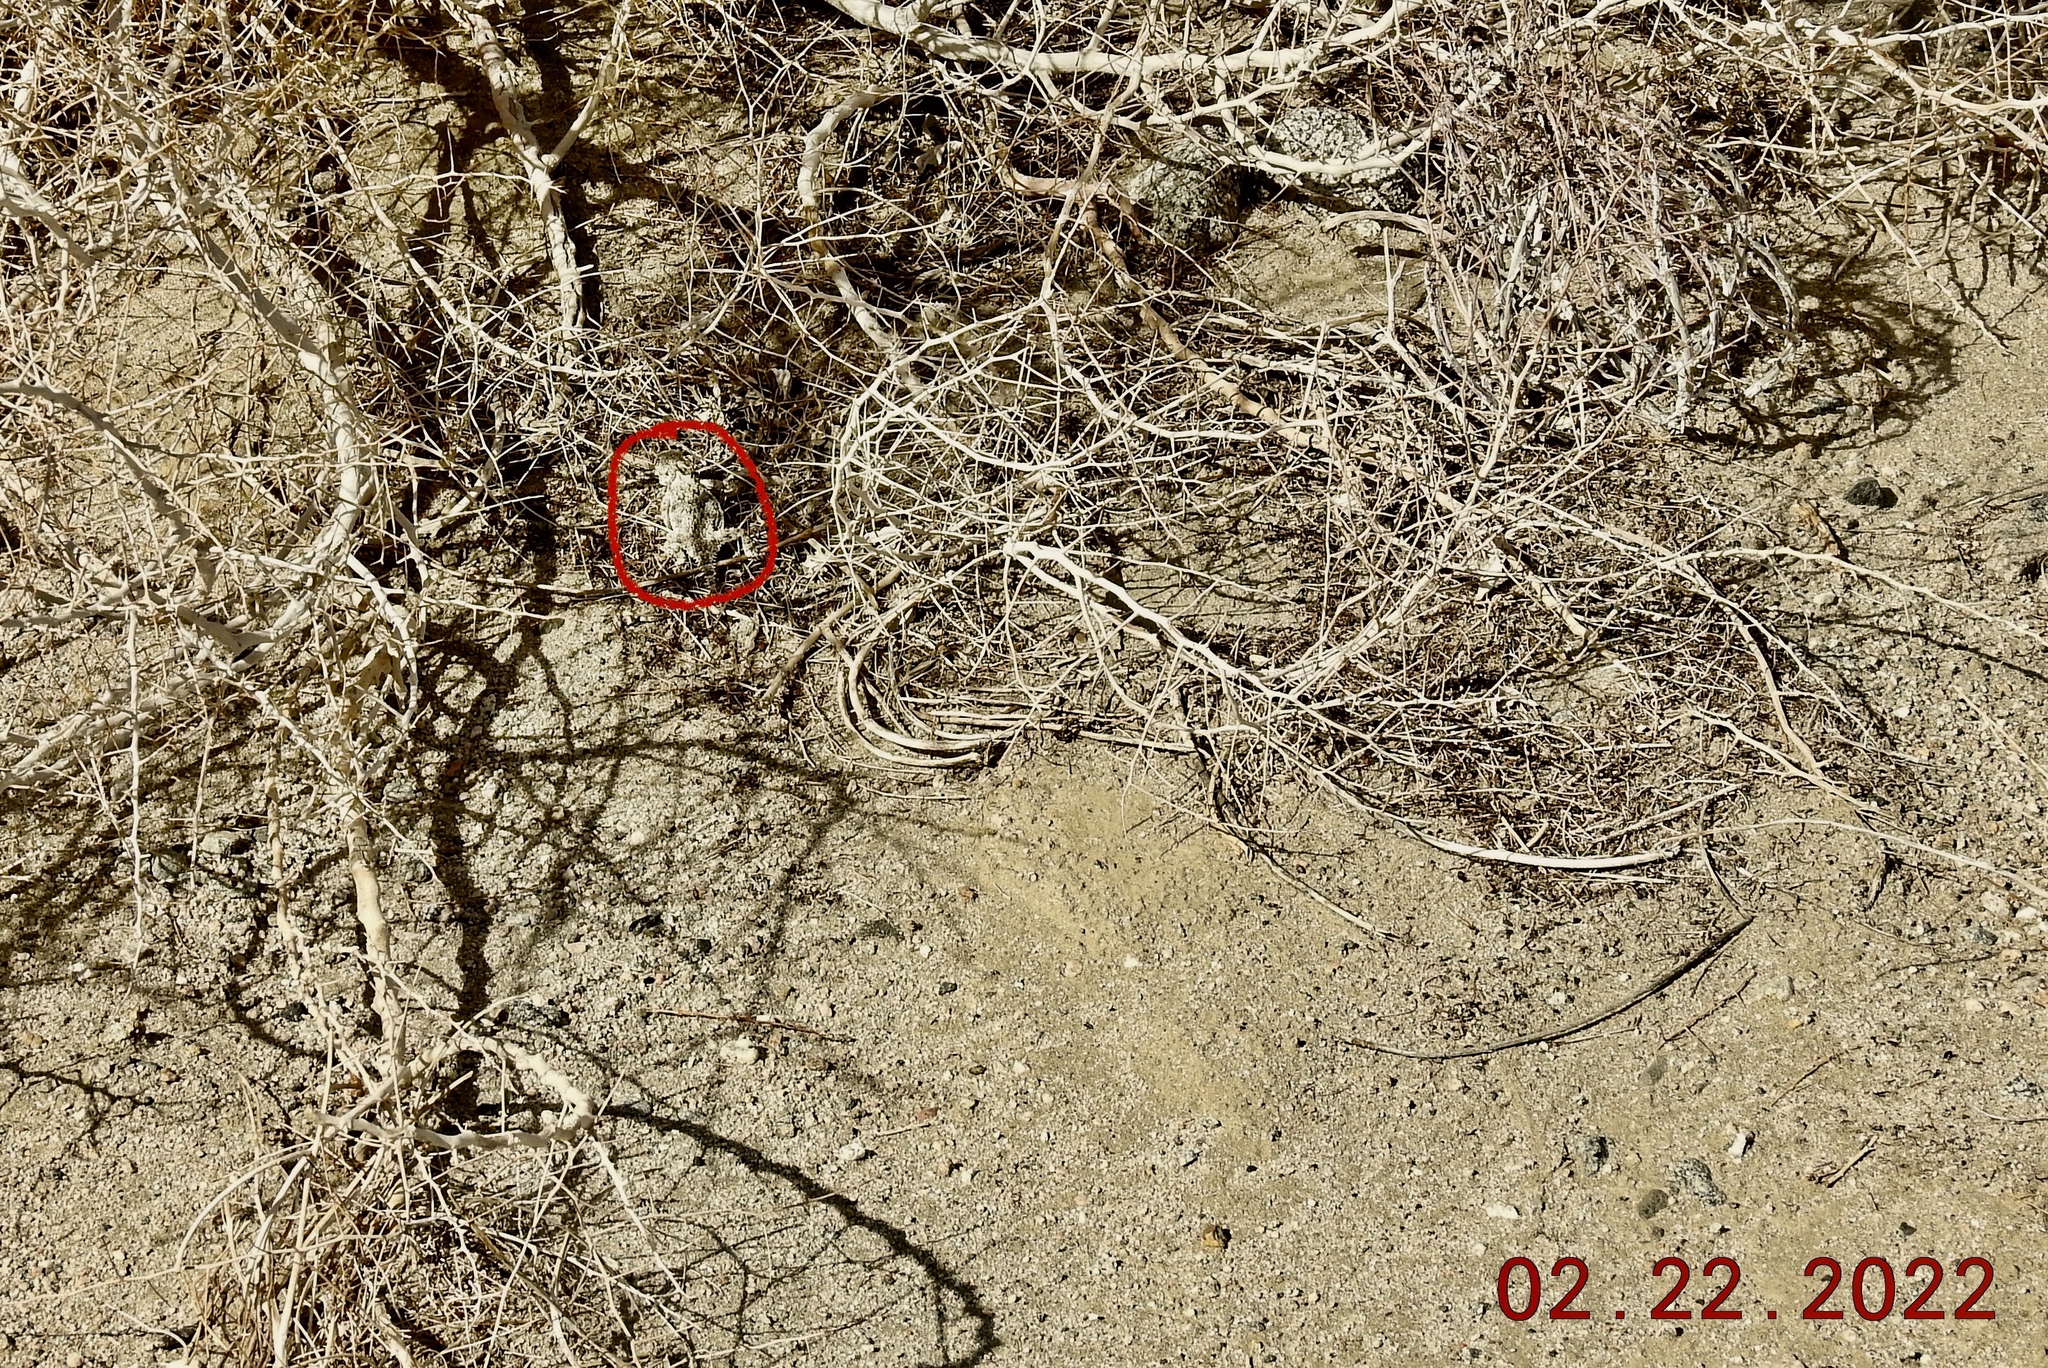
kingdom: Animalia
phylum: Chordata
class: Squamata
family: Phrynosomatidae
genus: Phrynosoma
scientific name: Phrynosoma platyrhinos
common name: Desert horned lizard
